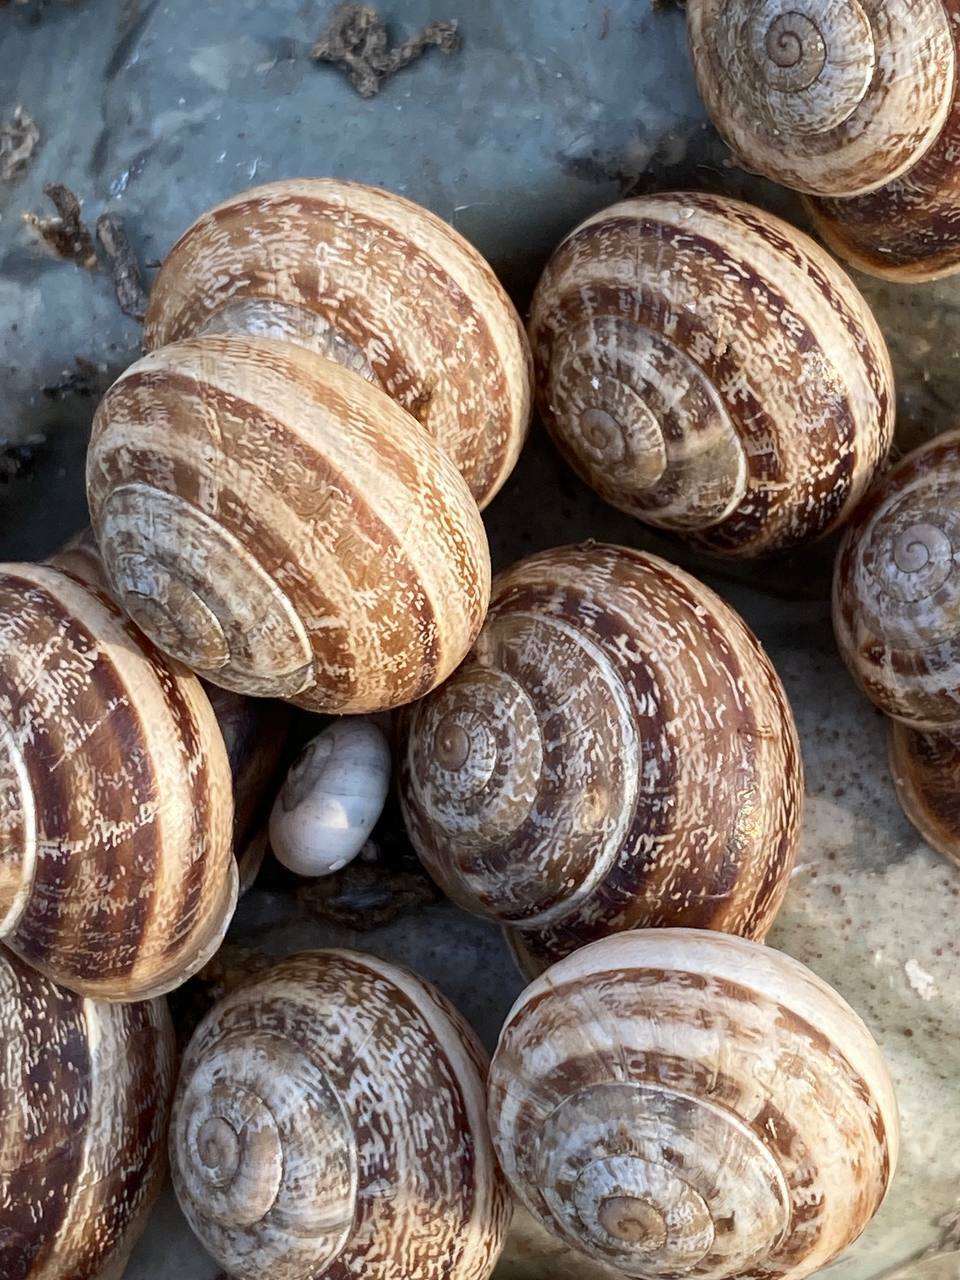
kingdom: Animalia
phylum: Mollusca
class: Gastropoda
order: Stylommatophora
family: Helicidae
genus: Eobania
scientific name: Eobania vermiculata
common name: Chocolateband snail
